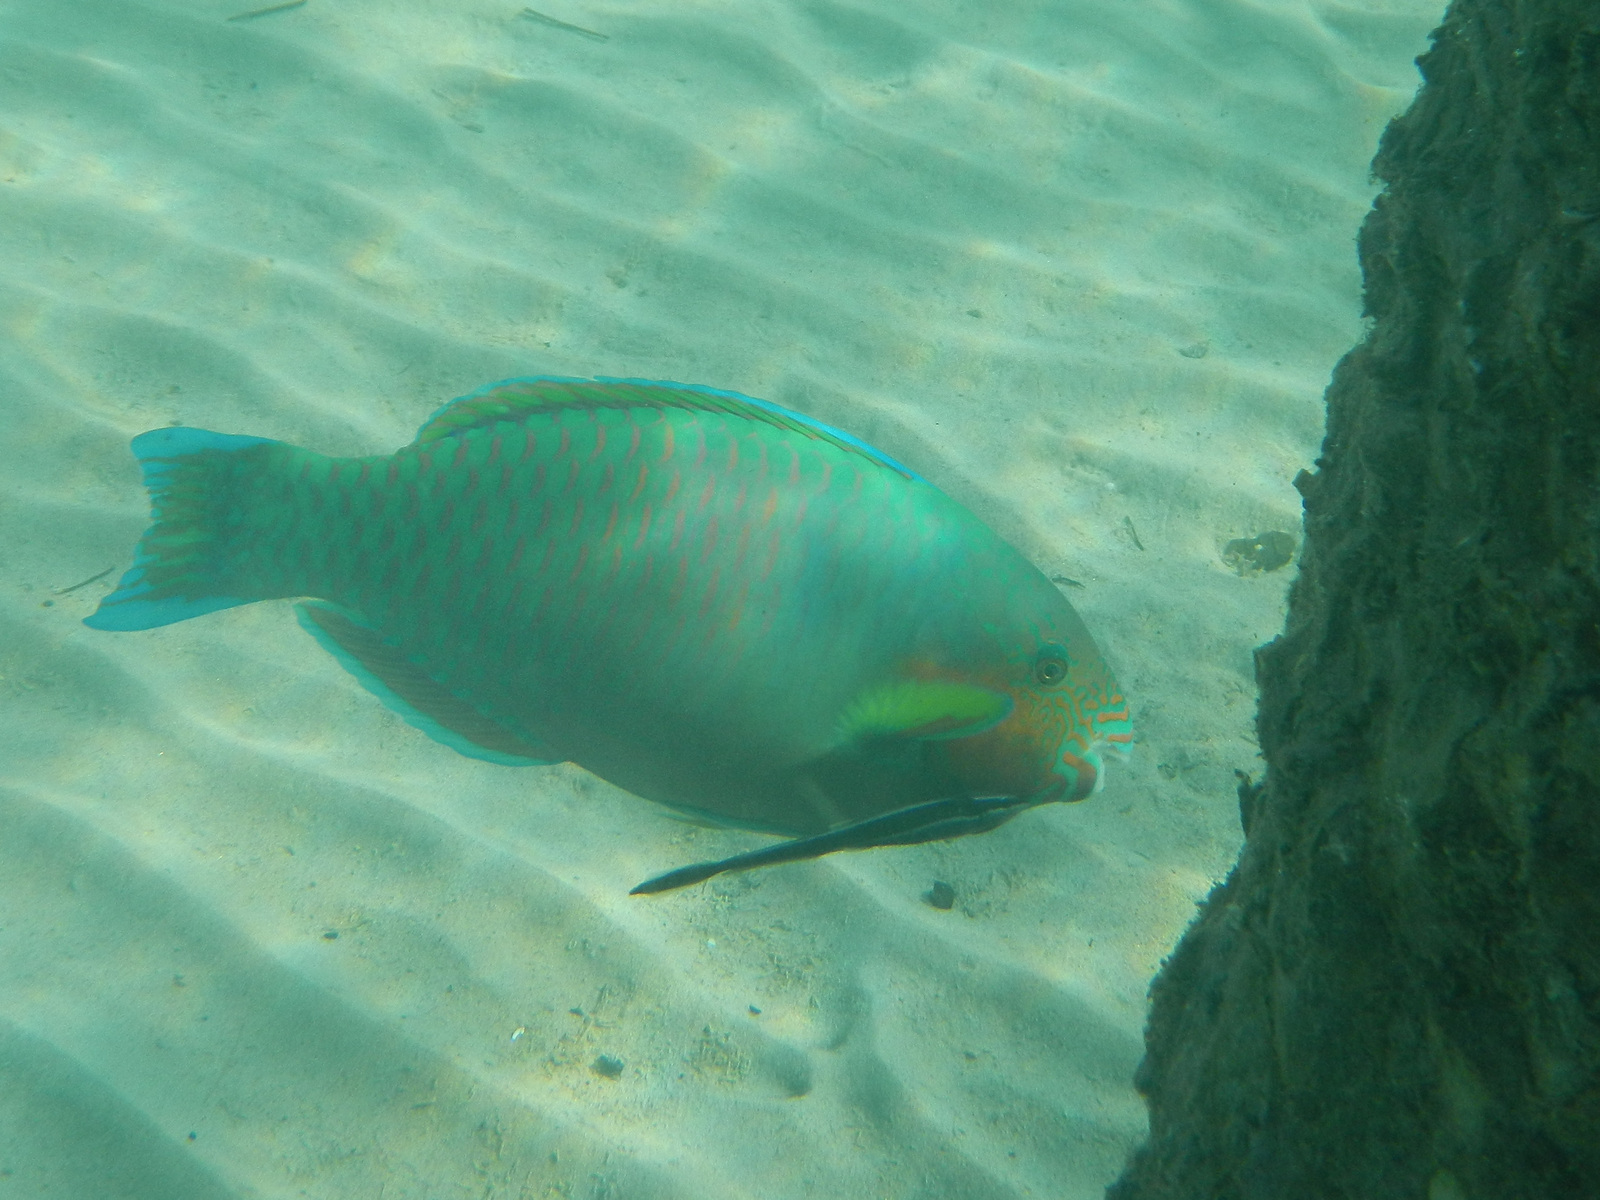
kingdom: Animalia
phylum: Chordata
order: Perciformes
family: Echeneidae
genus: Echeneis
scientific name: Echeneis naucrates
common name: Sharksucker
